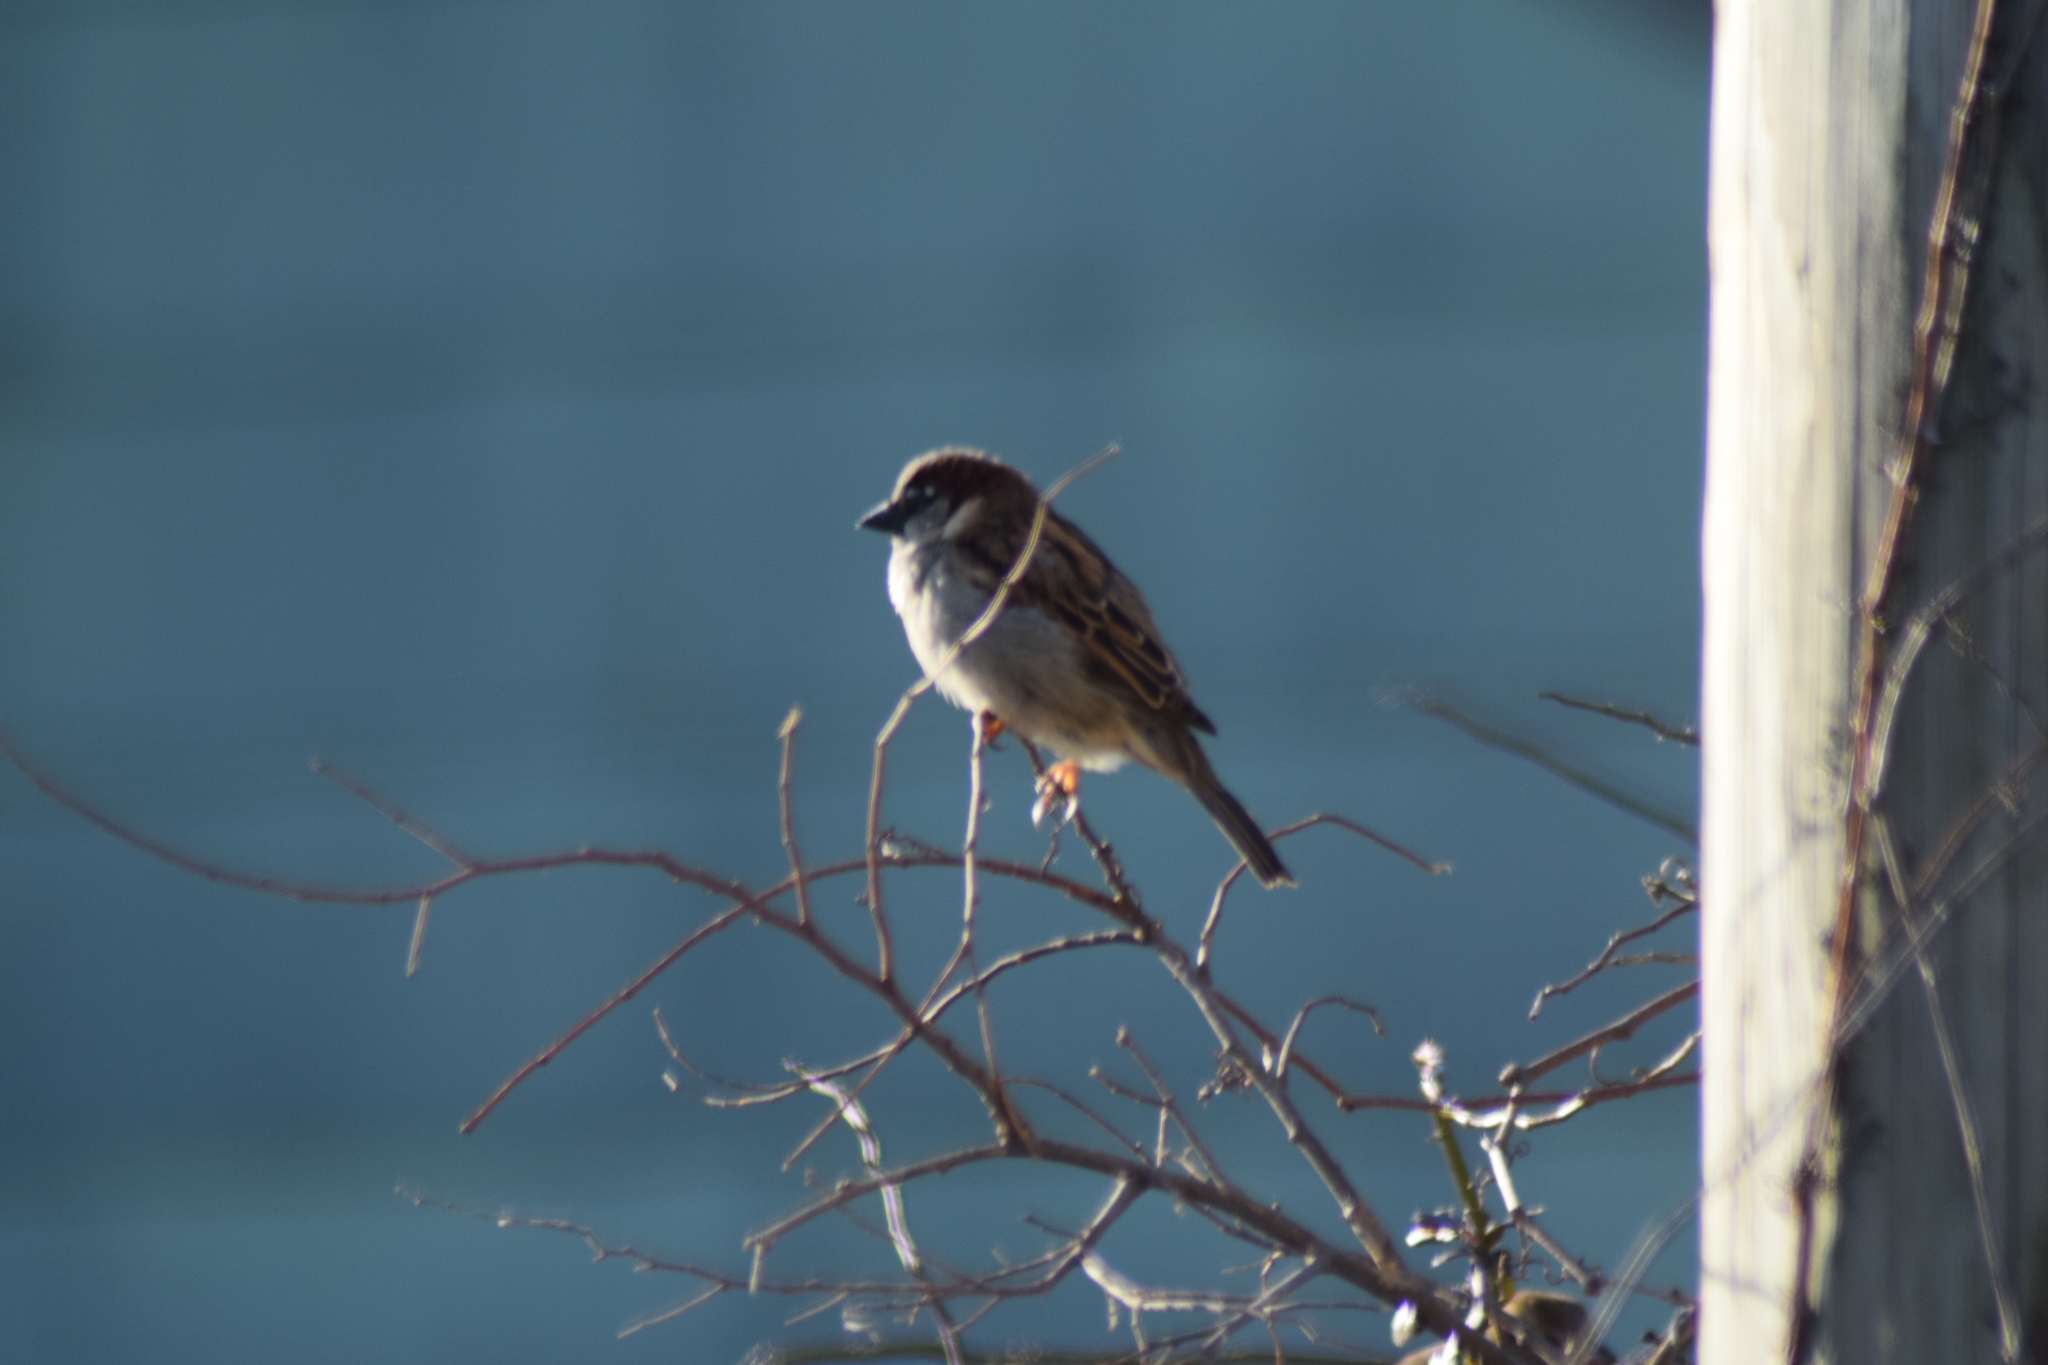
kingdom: Animalia
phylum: Chordata
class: Aves
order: Passeriformes
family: Passeridae
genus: Passer
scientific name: Passer domesticus
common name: House sparrow
